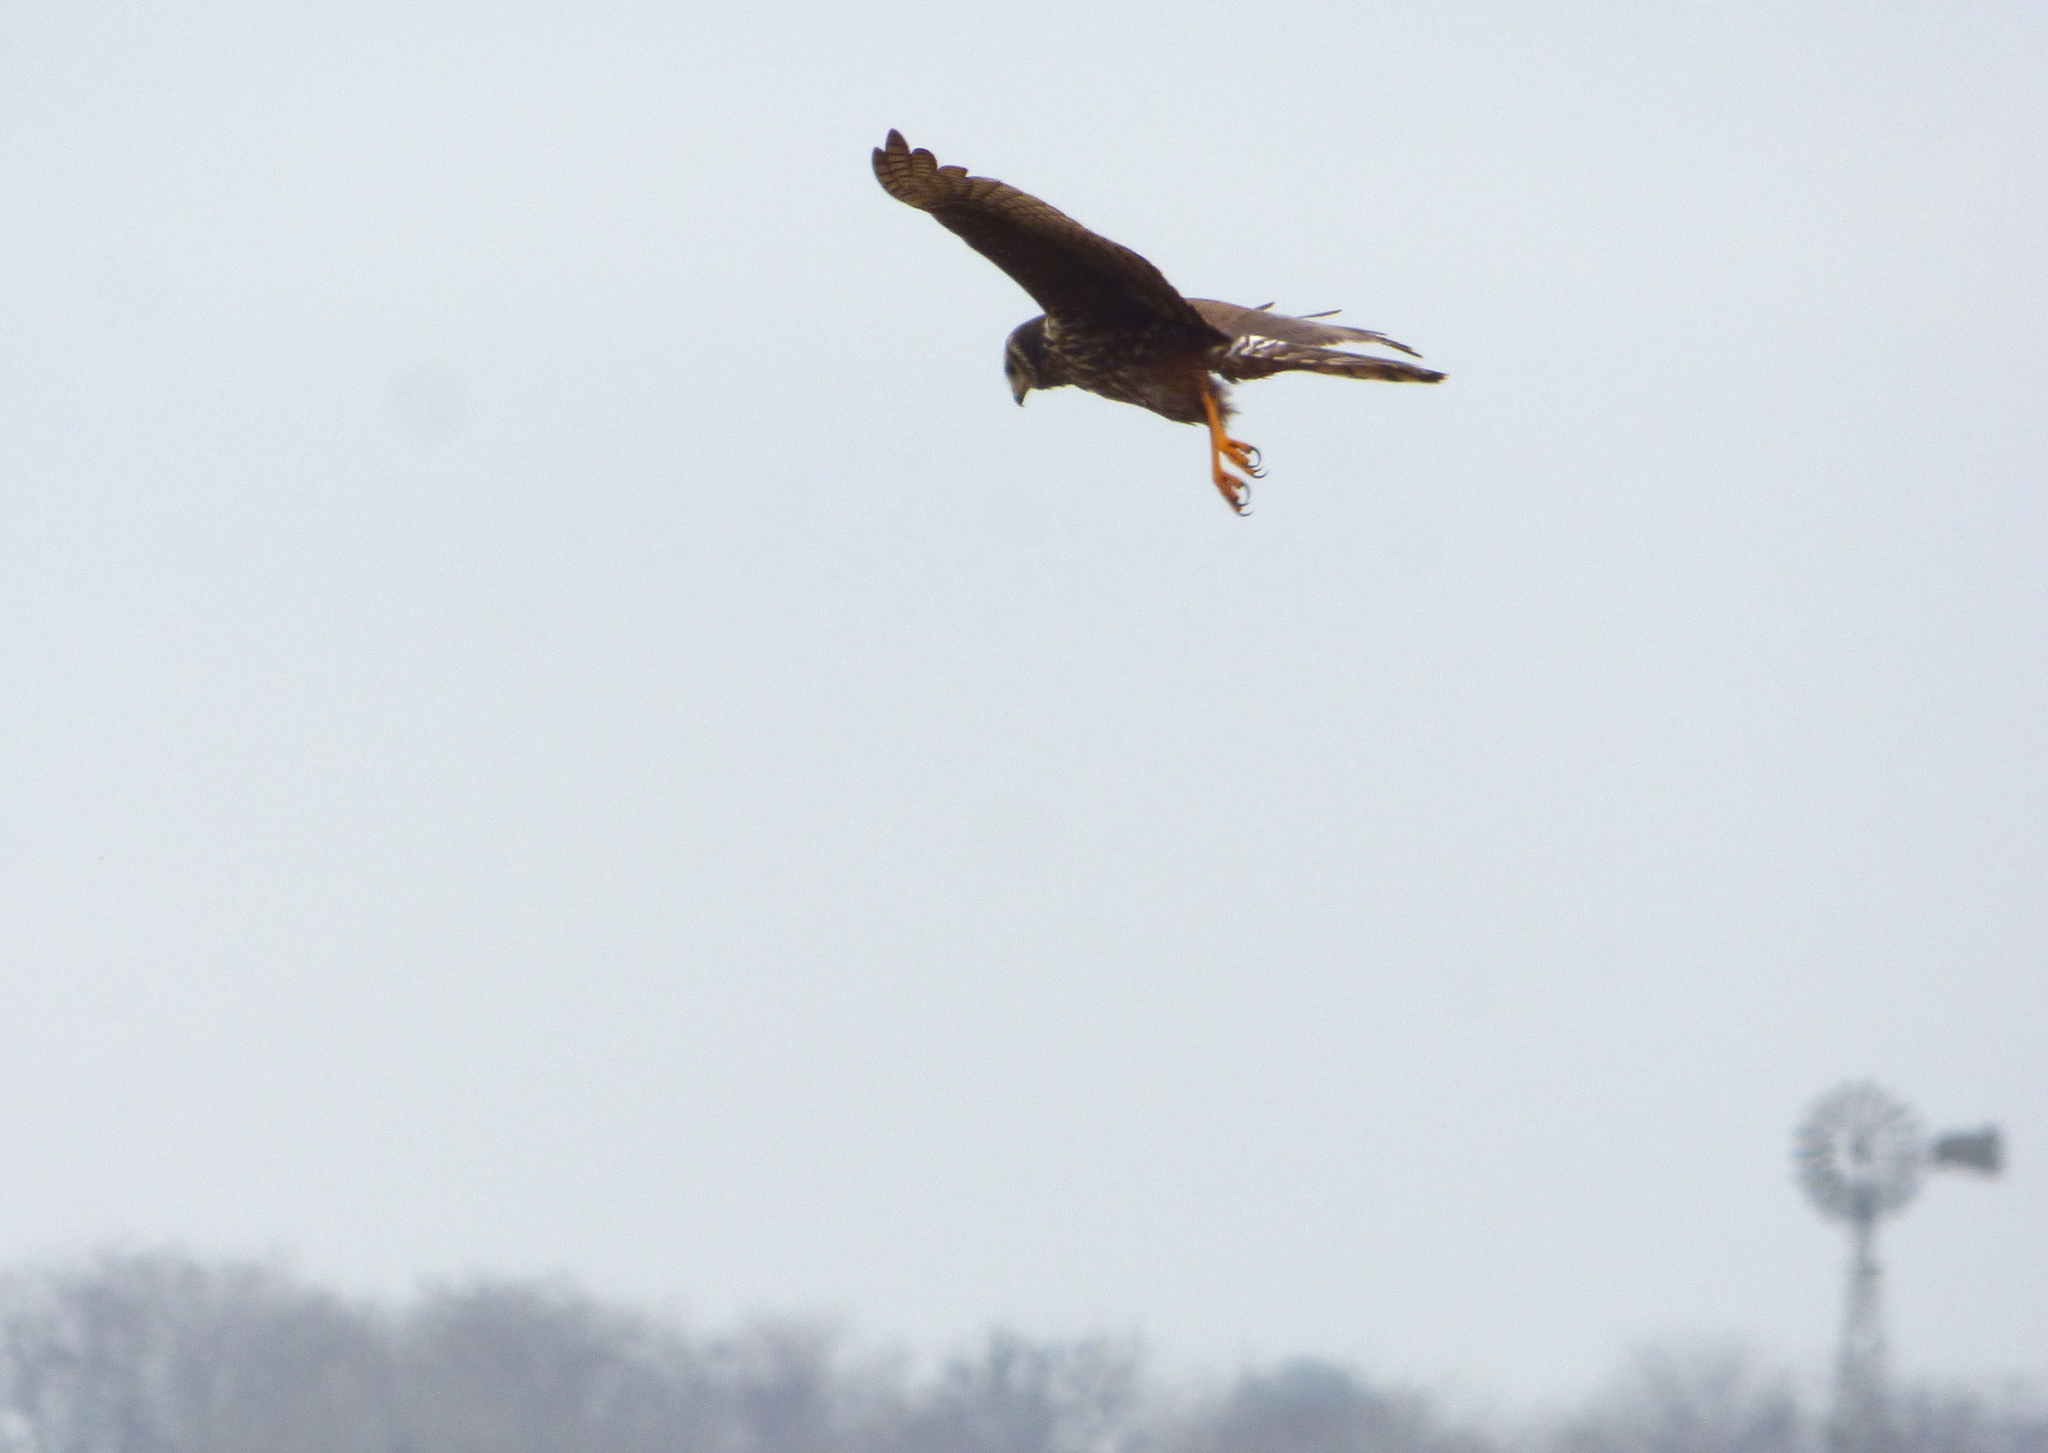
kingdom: Animalia
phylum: Chordata
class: Aves
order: Accipitriformes
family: Accipitridae
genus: Circus
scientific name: Circus buffoni
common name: Long-winged harrier
